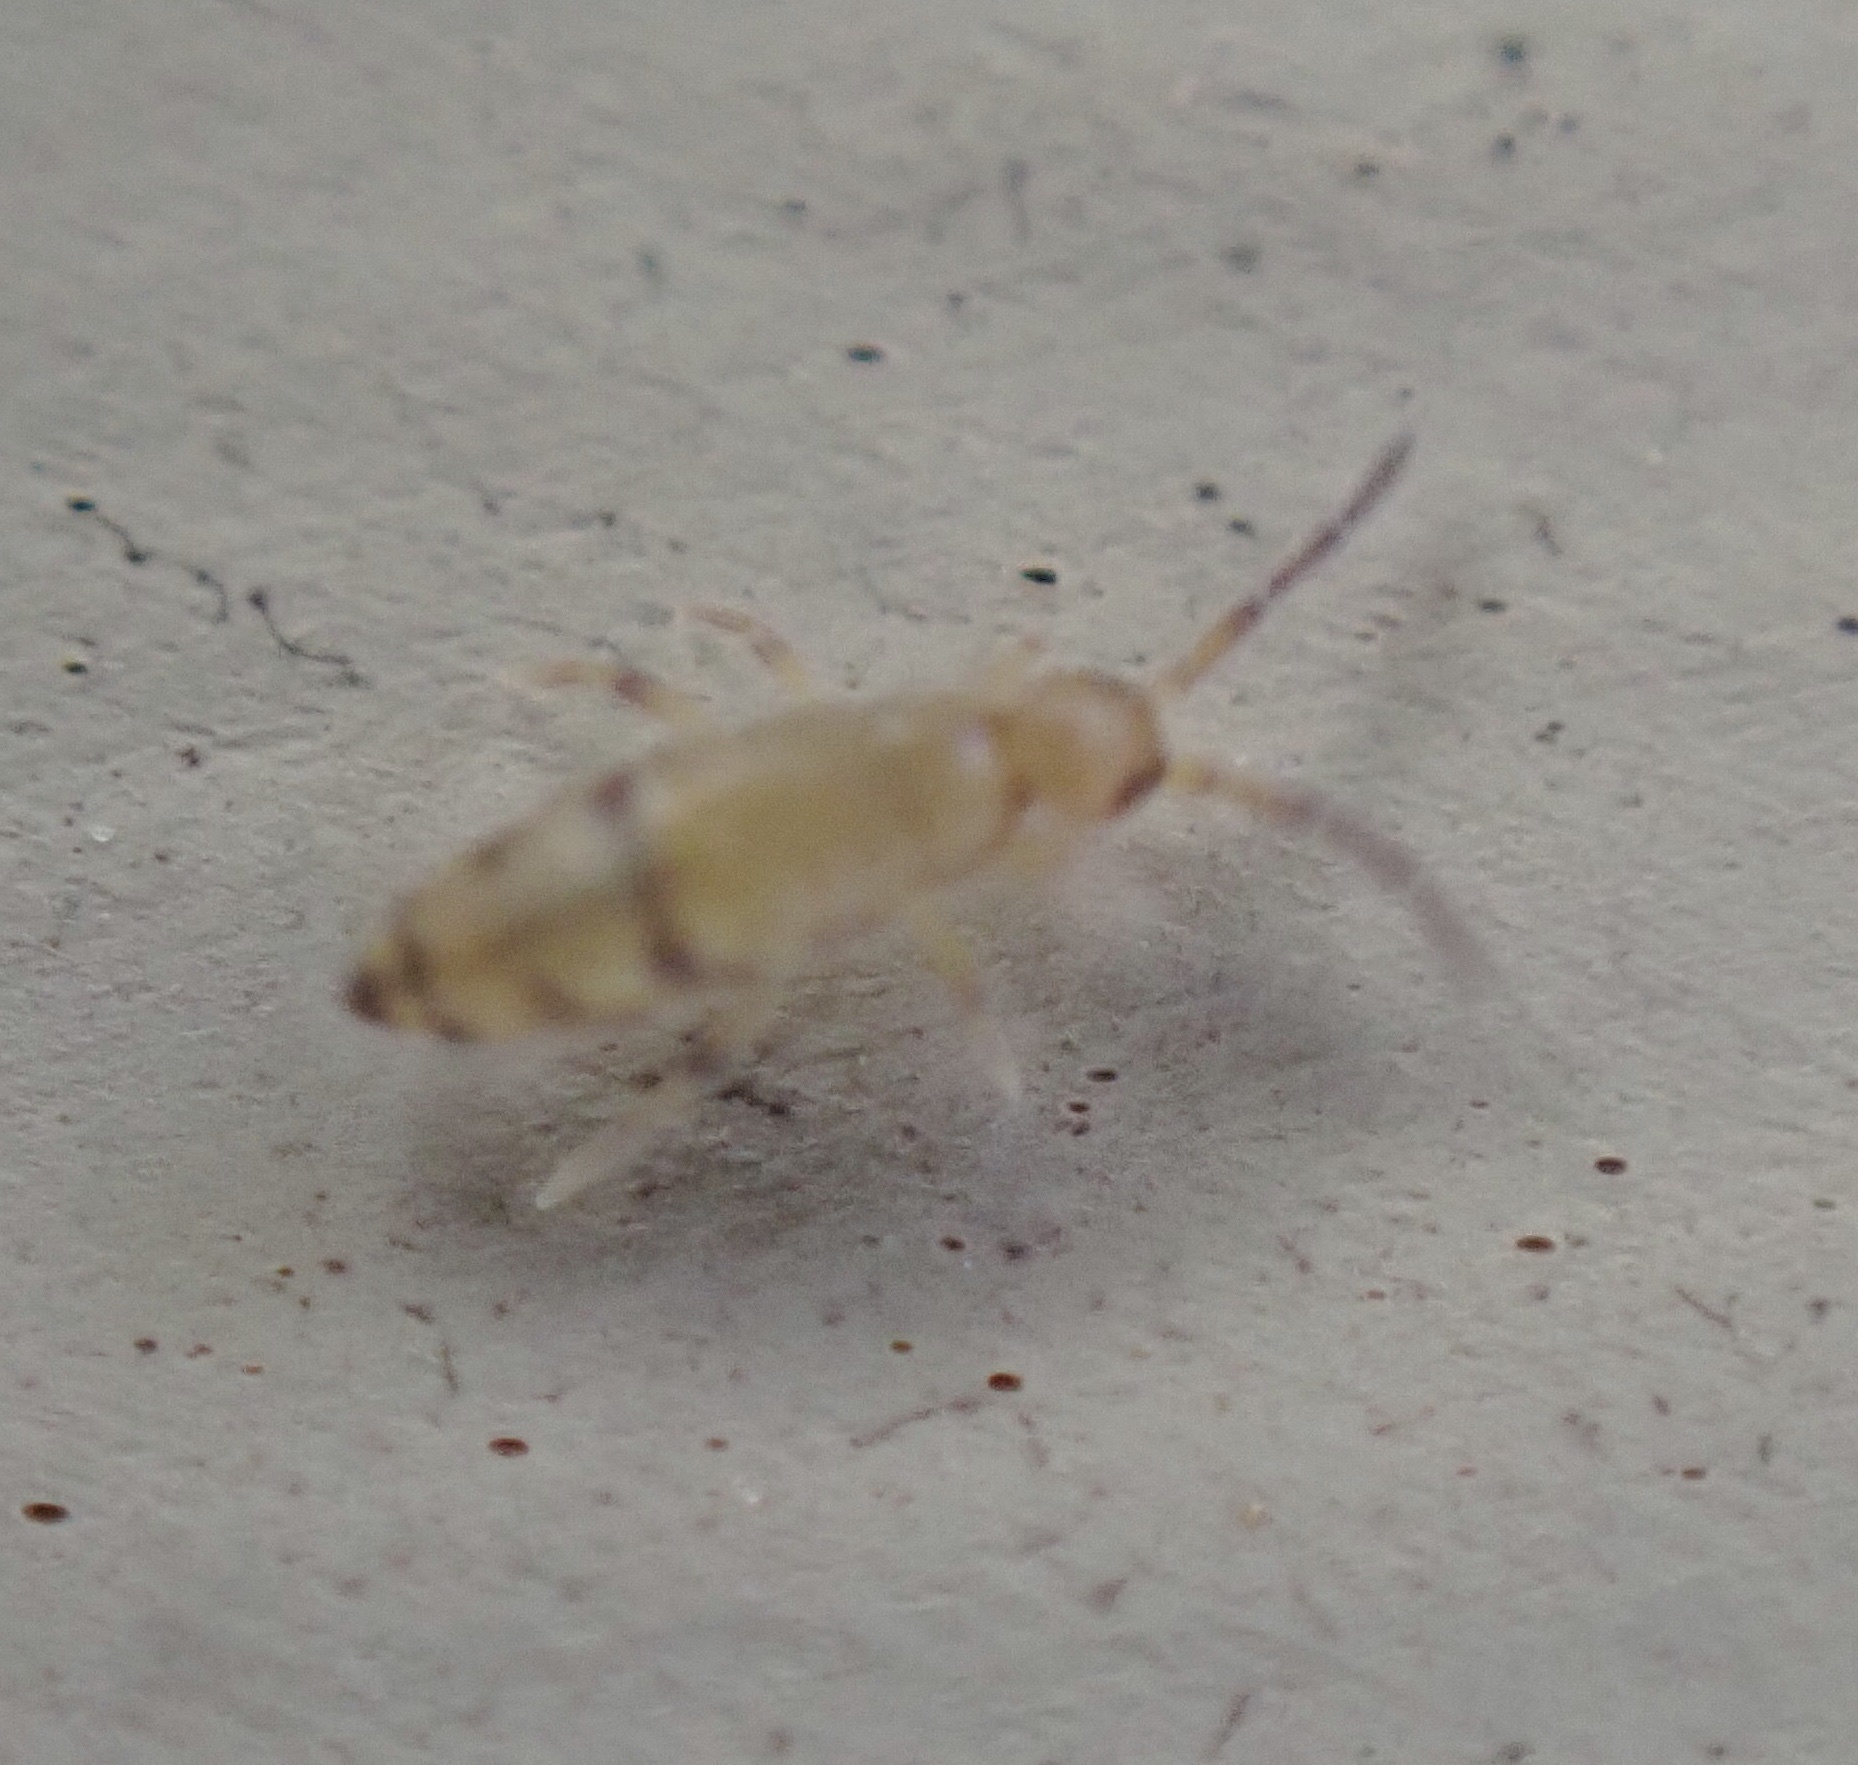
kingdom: Animalia
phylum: Arthropoda
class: Collembola
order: Entomobryomorpha
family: Entomobryidae
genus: Willowsia
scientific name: Willowsia nigromaculata
